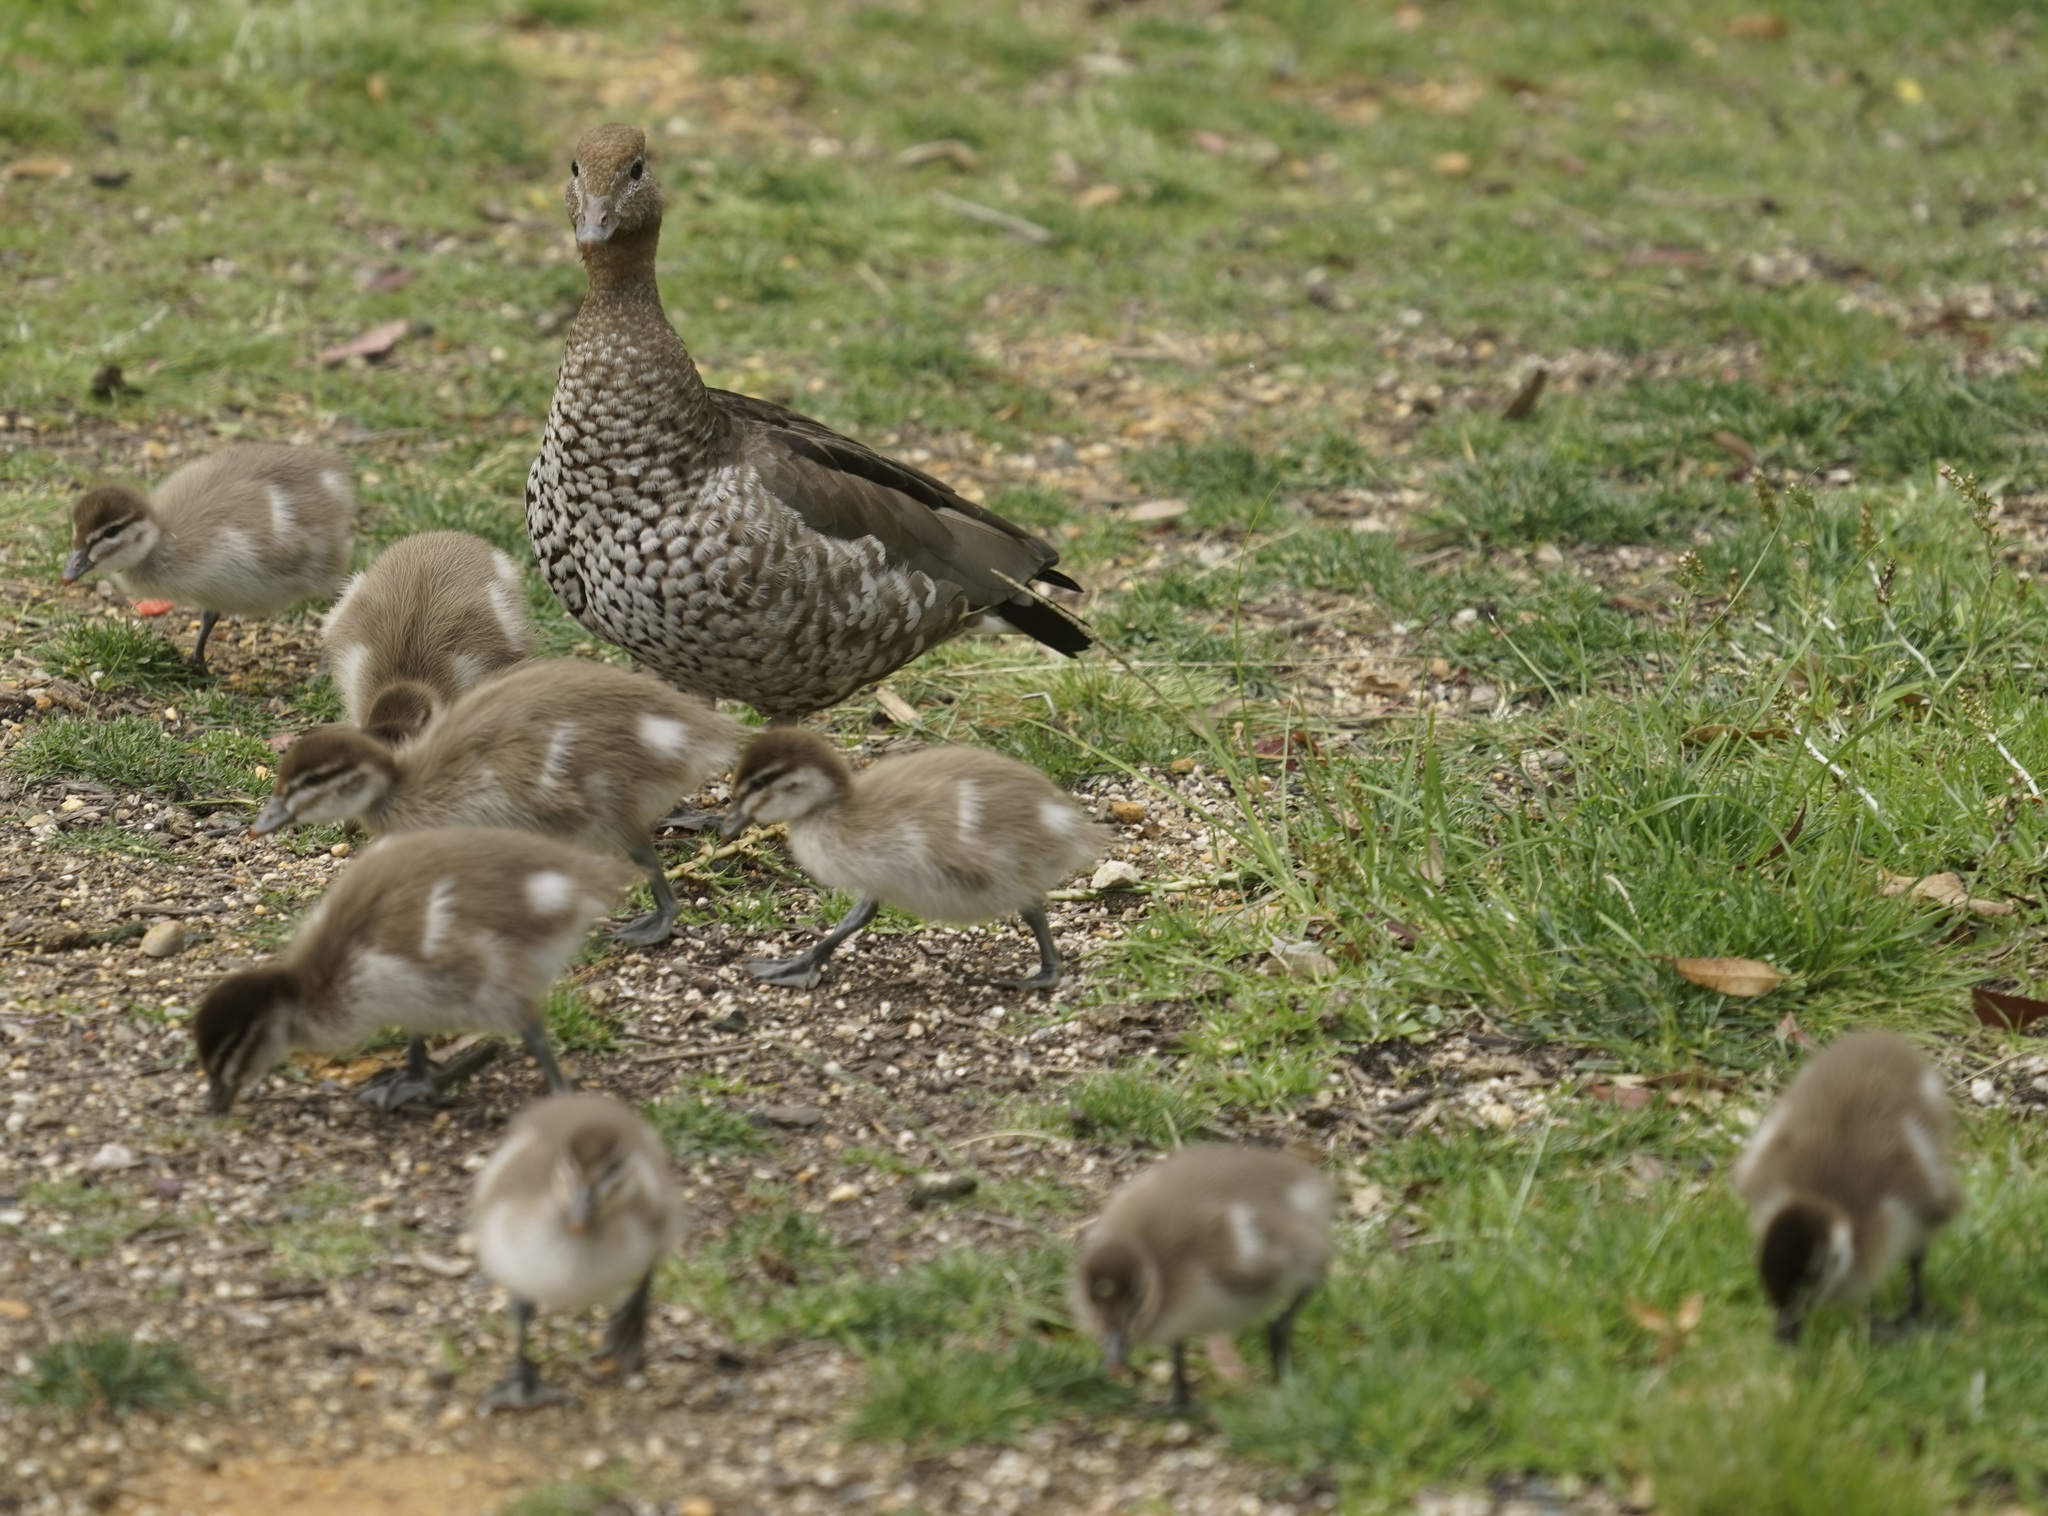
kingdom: Animalia
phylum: Chordata
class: Aves
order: Anseriformes
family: Anatidae
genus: Chenonetta
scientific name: Chenonetta jubata
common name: Maned duck
